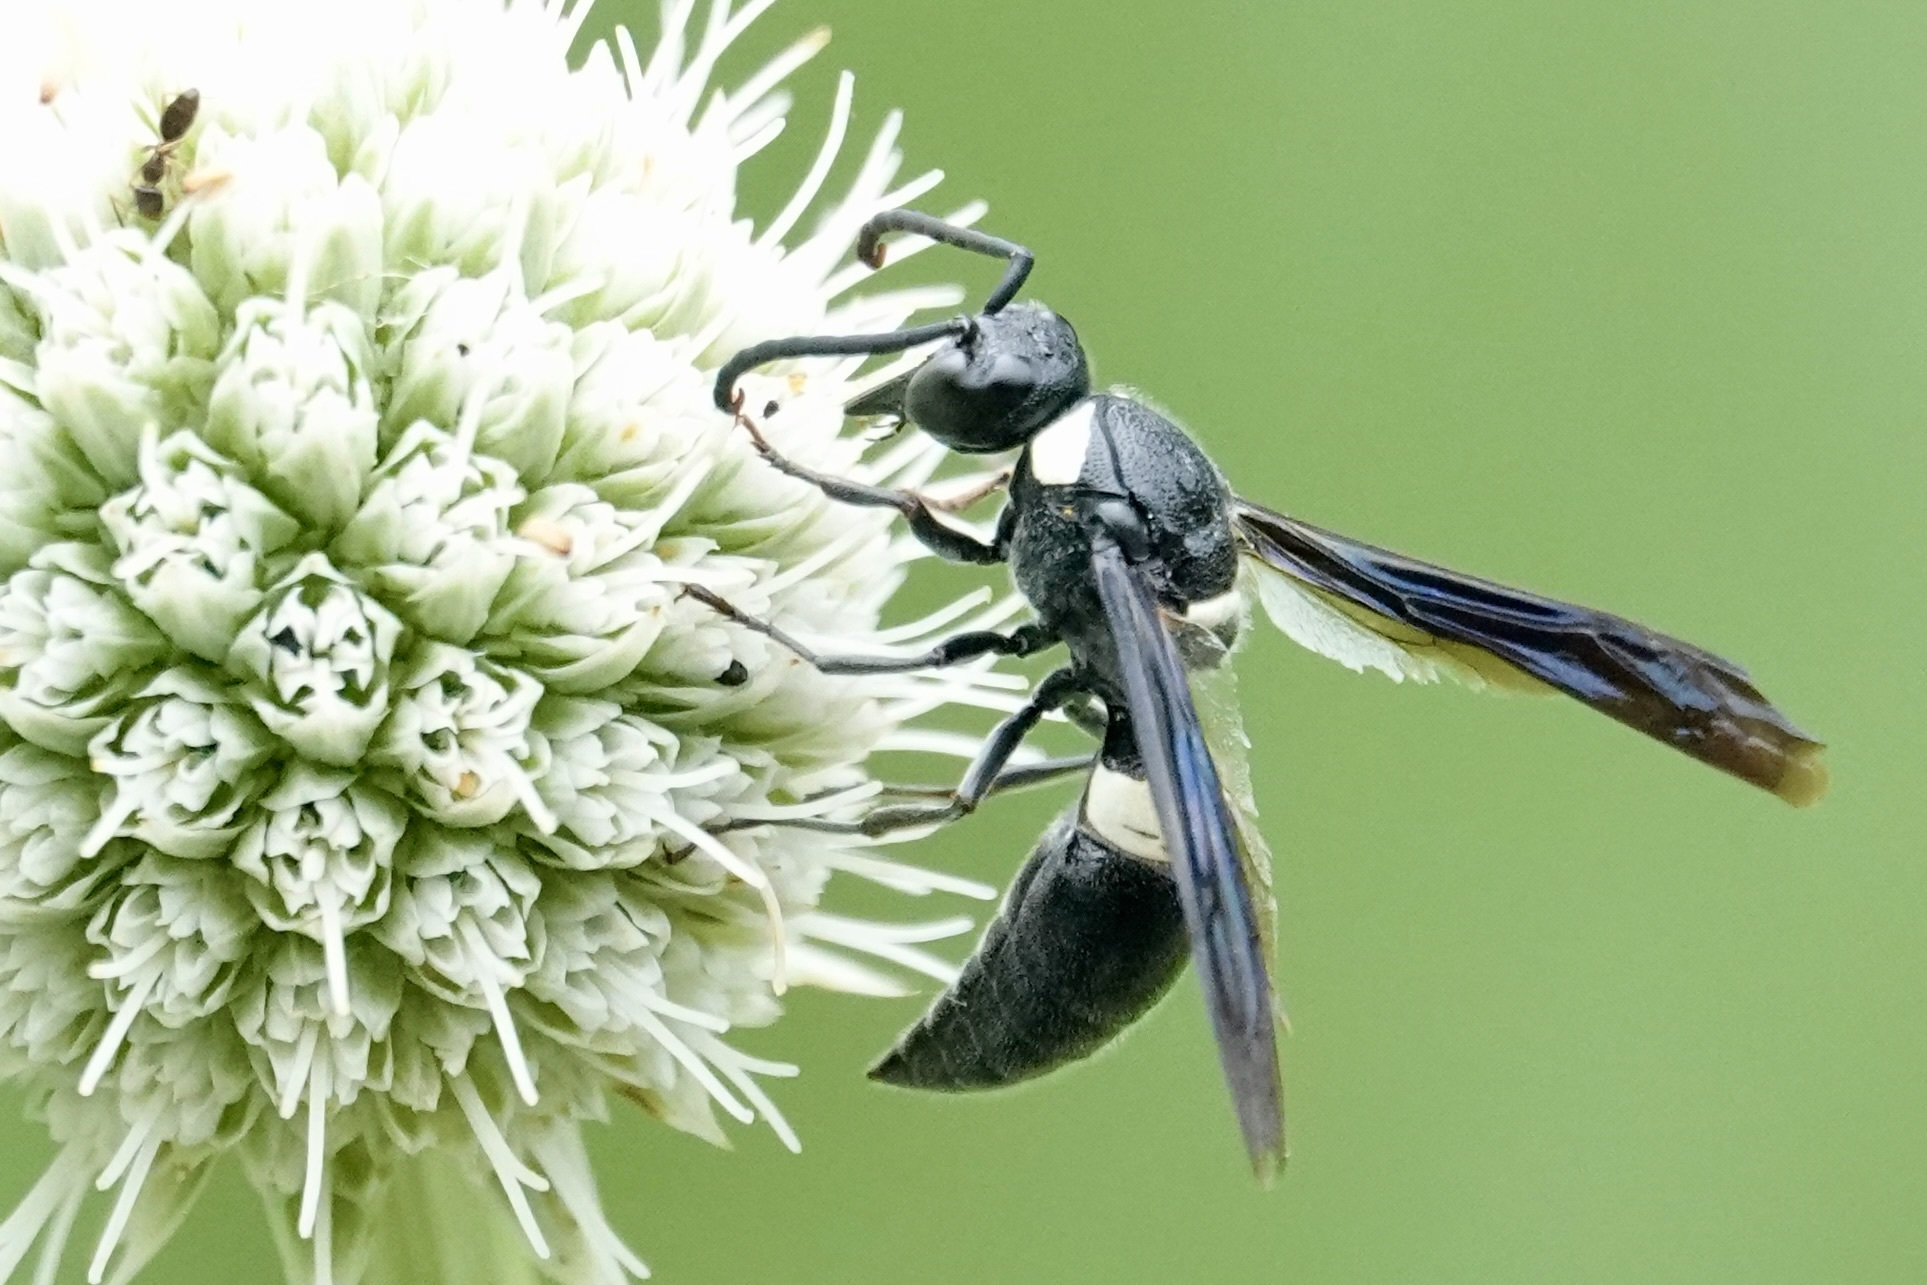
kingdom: Animalia
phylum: Arthropoda
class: Insecta
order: Hymenoptera
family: Eumenidae
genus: Monobia
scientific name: Monobia quadridens
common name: Four-toothed mason wasp
